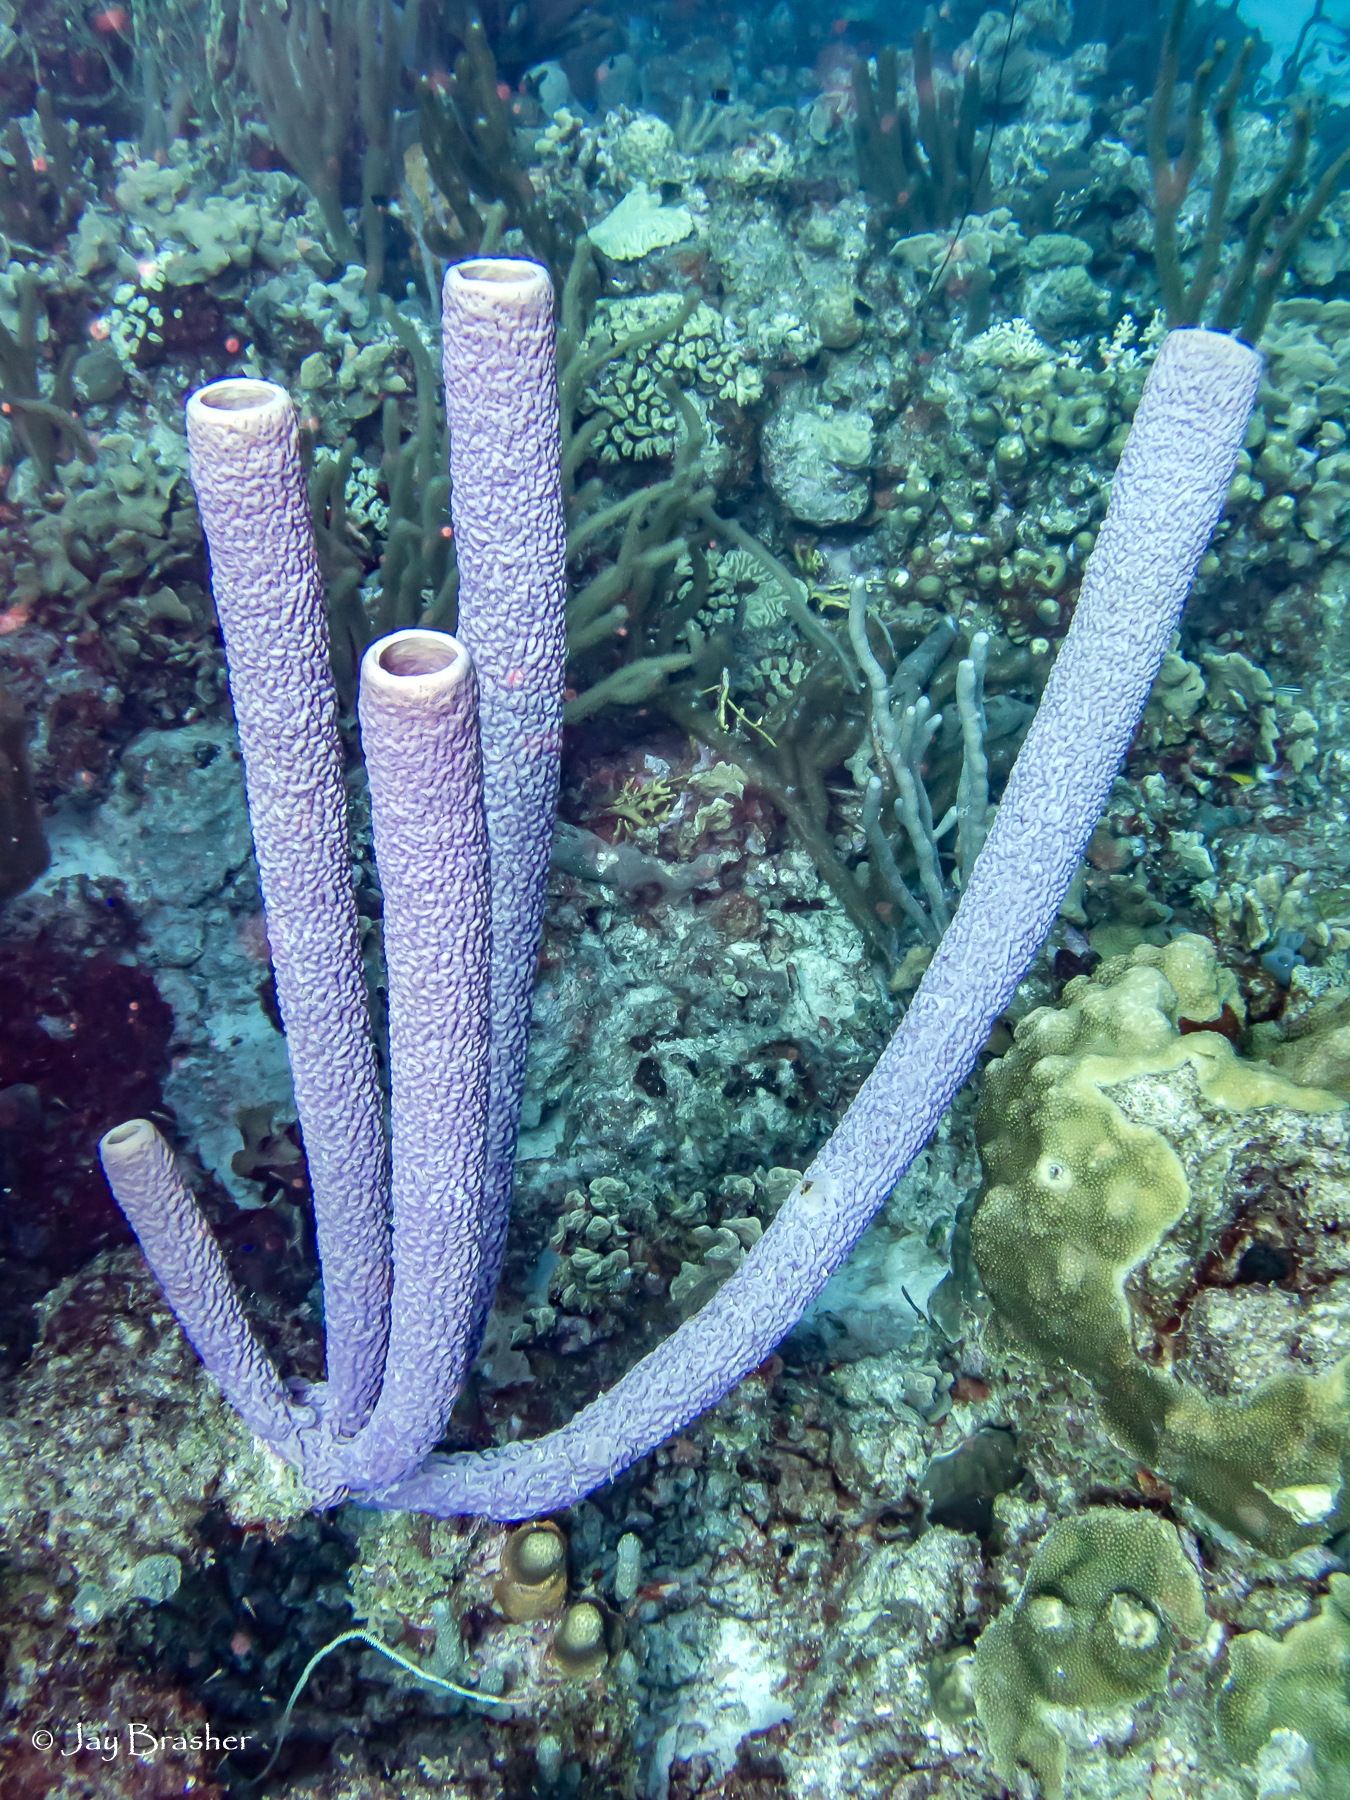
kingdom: Animalia
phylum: Porifera
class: Demospongiae
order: Verongiida
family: Aplysinidae
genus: Aplysina
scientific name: Aplysina archeri
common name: Stove-pipe sponge
